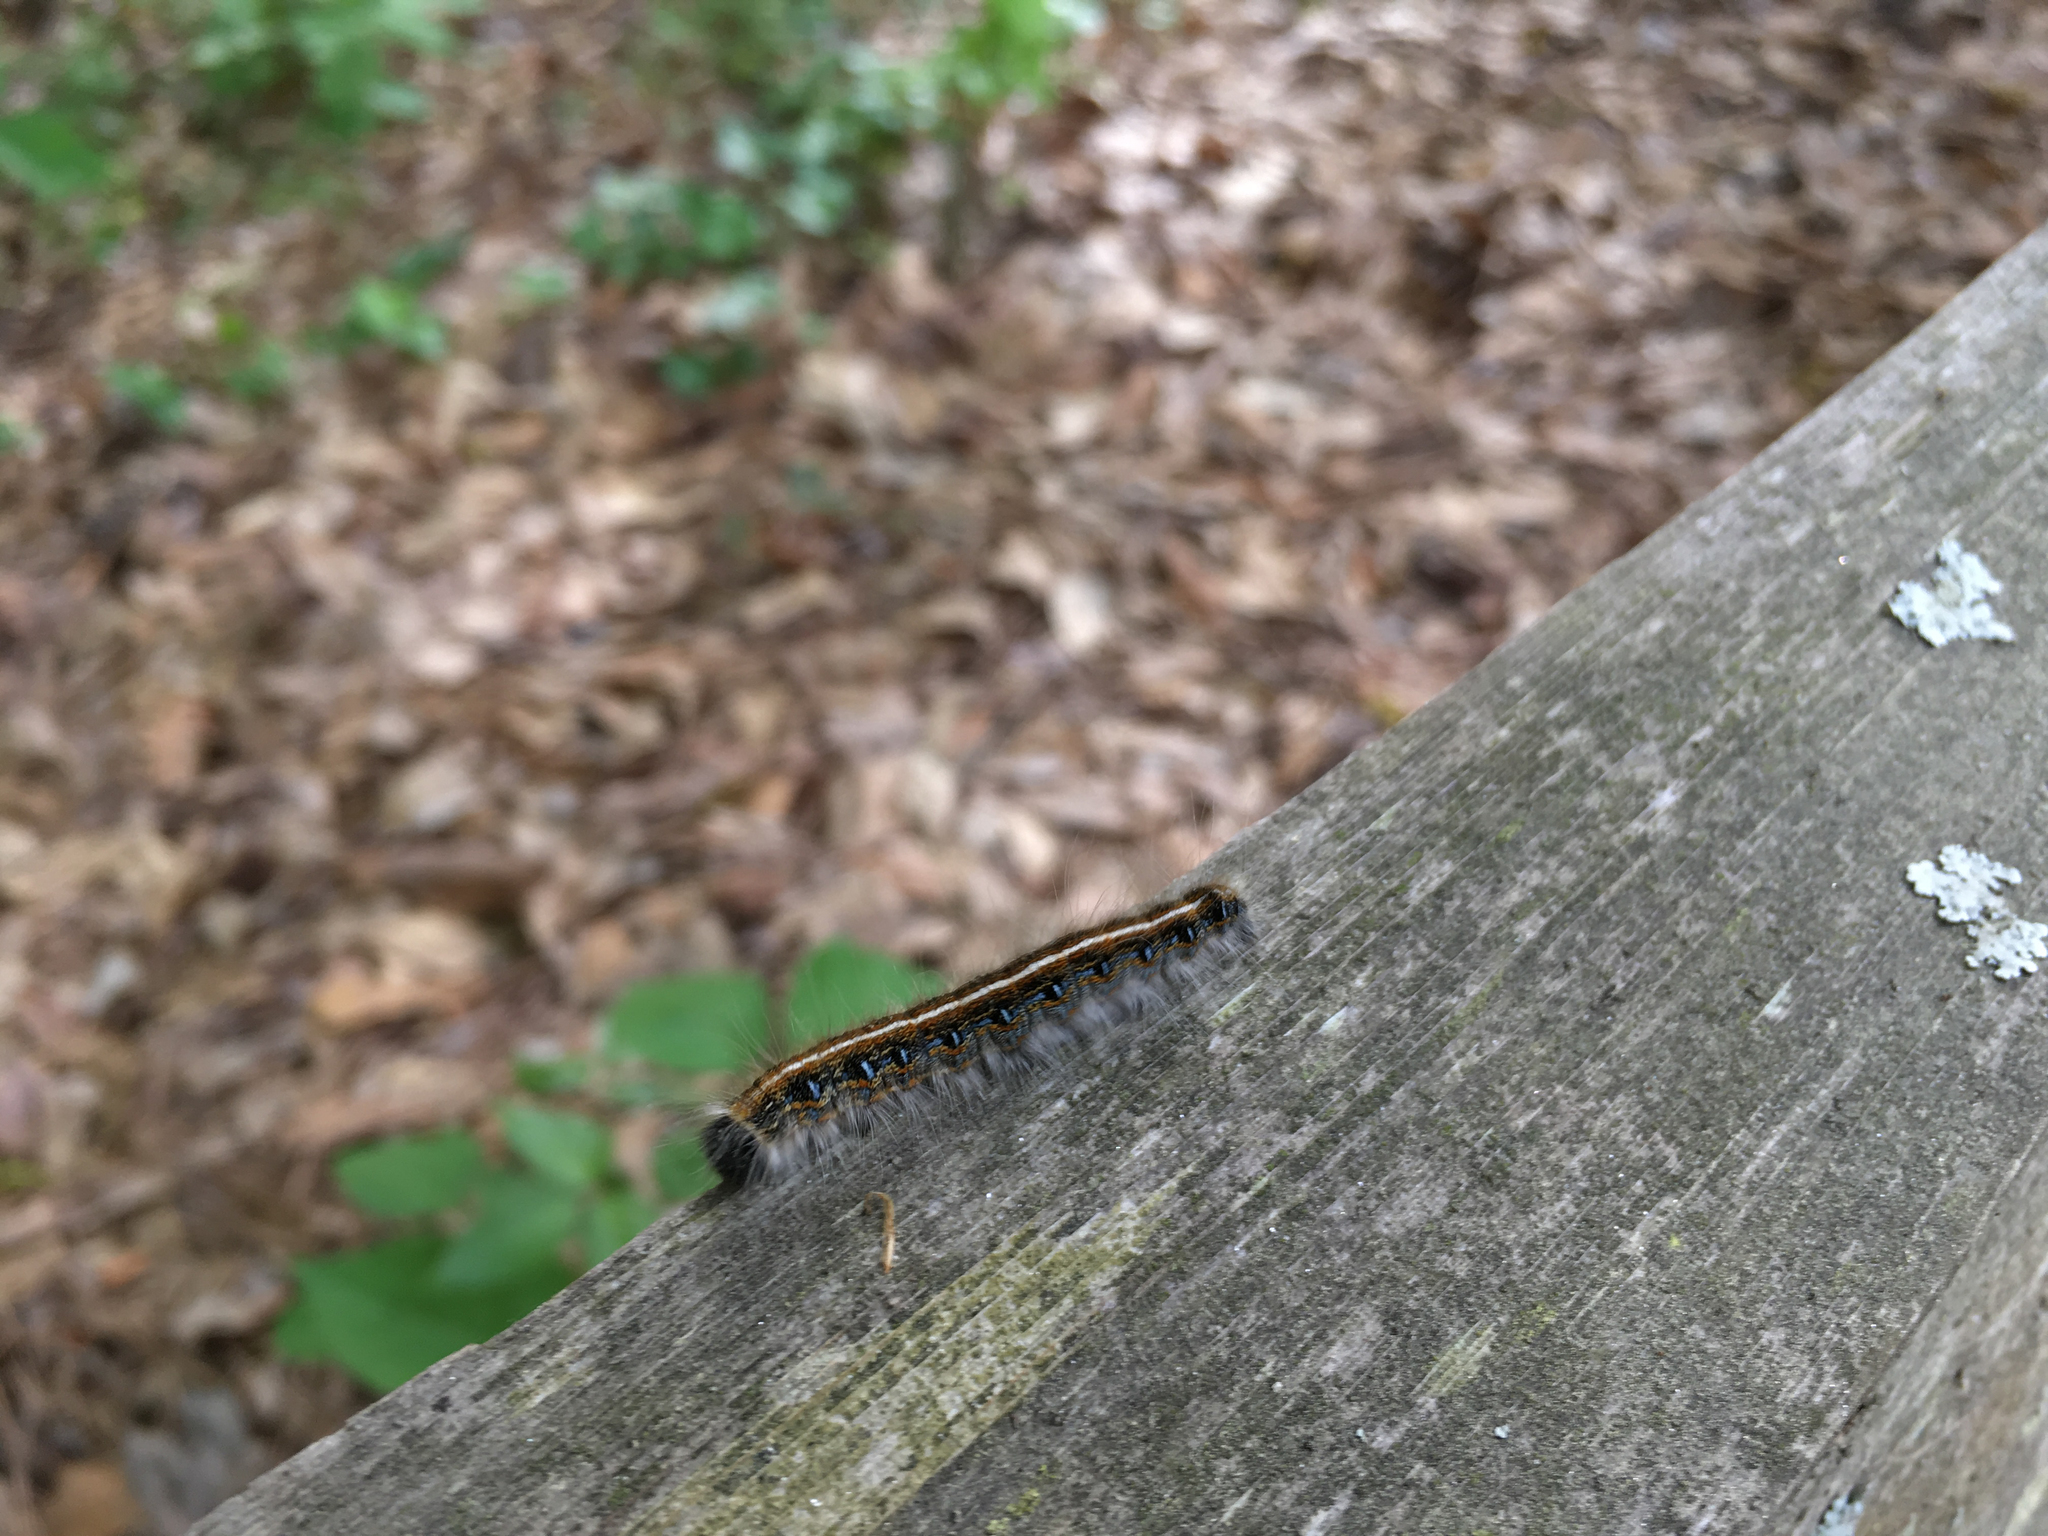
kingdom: Animalia
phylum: Arthropoda
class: Insecta
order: Lepidoptera
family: Lasiocampidae
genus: Malacosoma
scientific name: Malacosoma americana
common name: Eastern tent caterpillar moth
